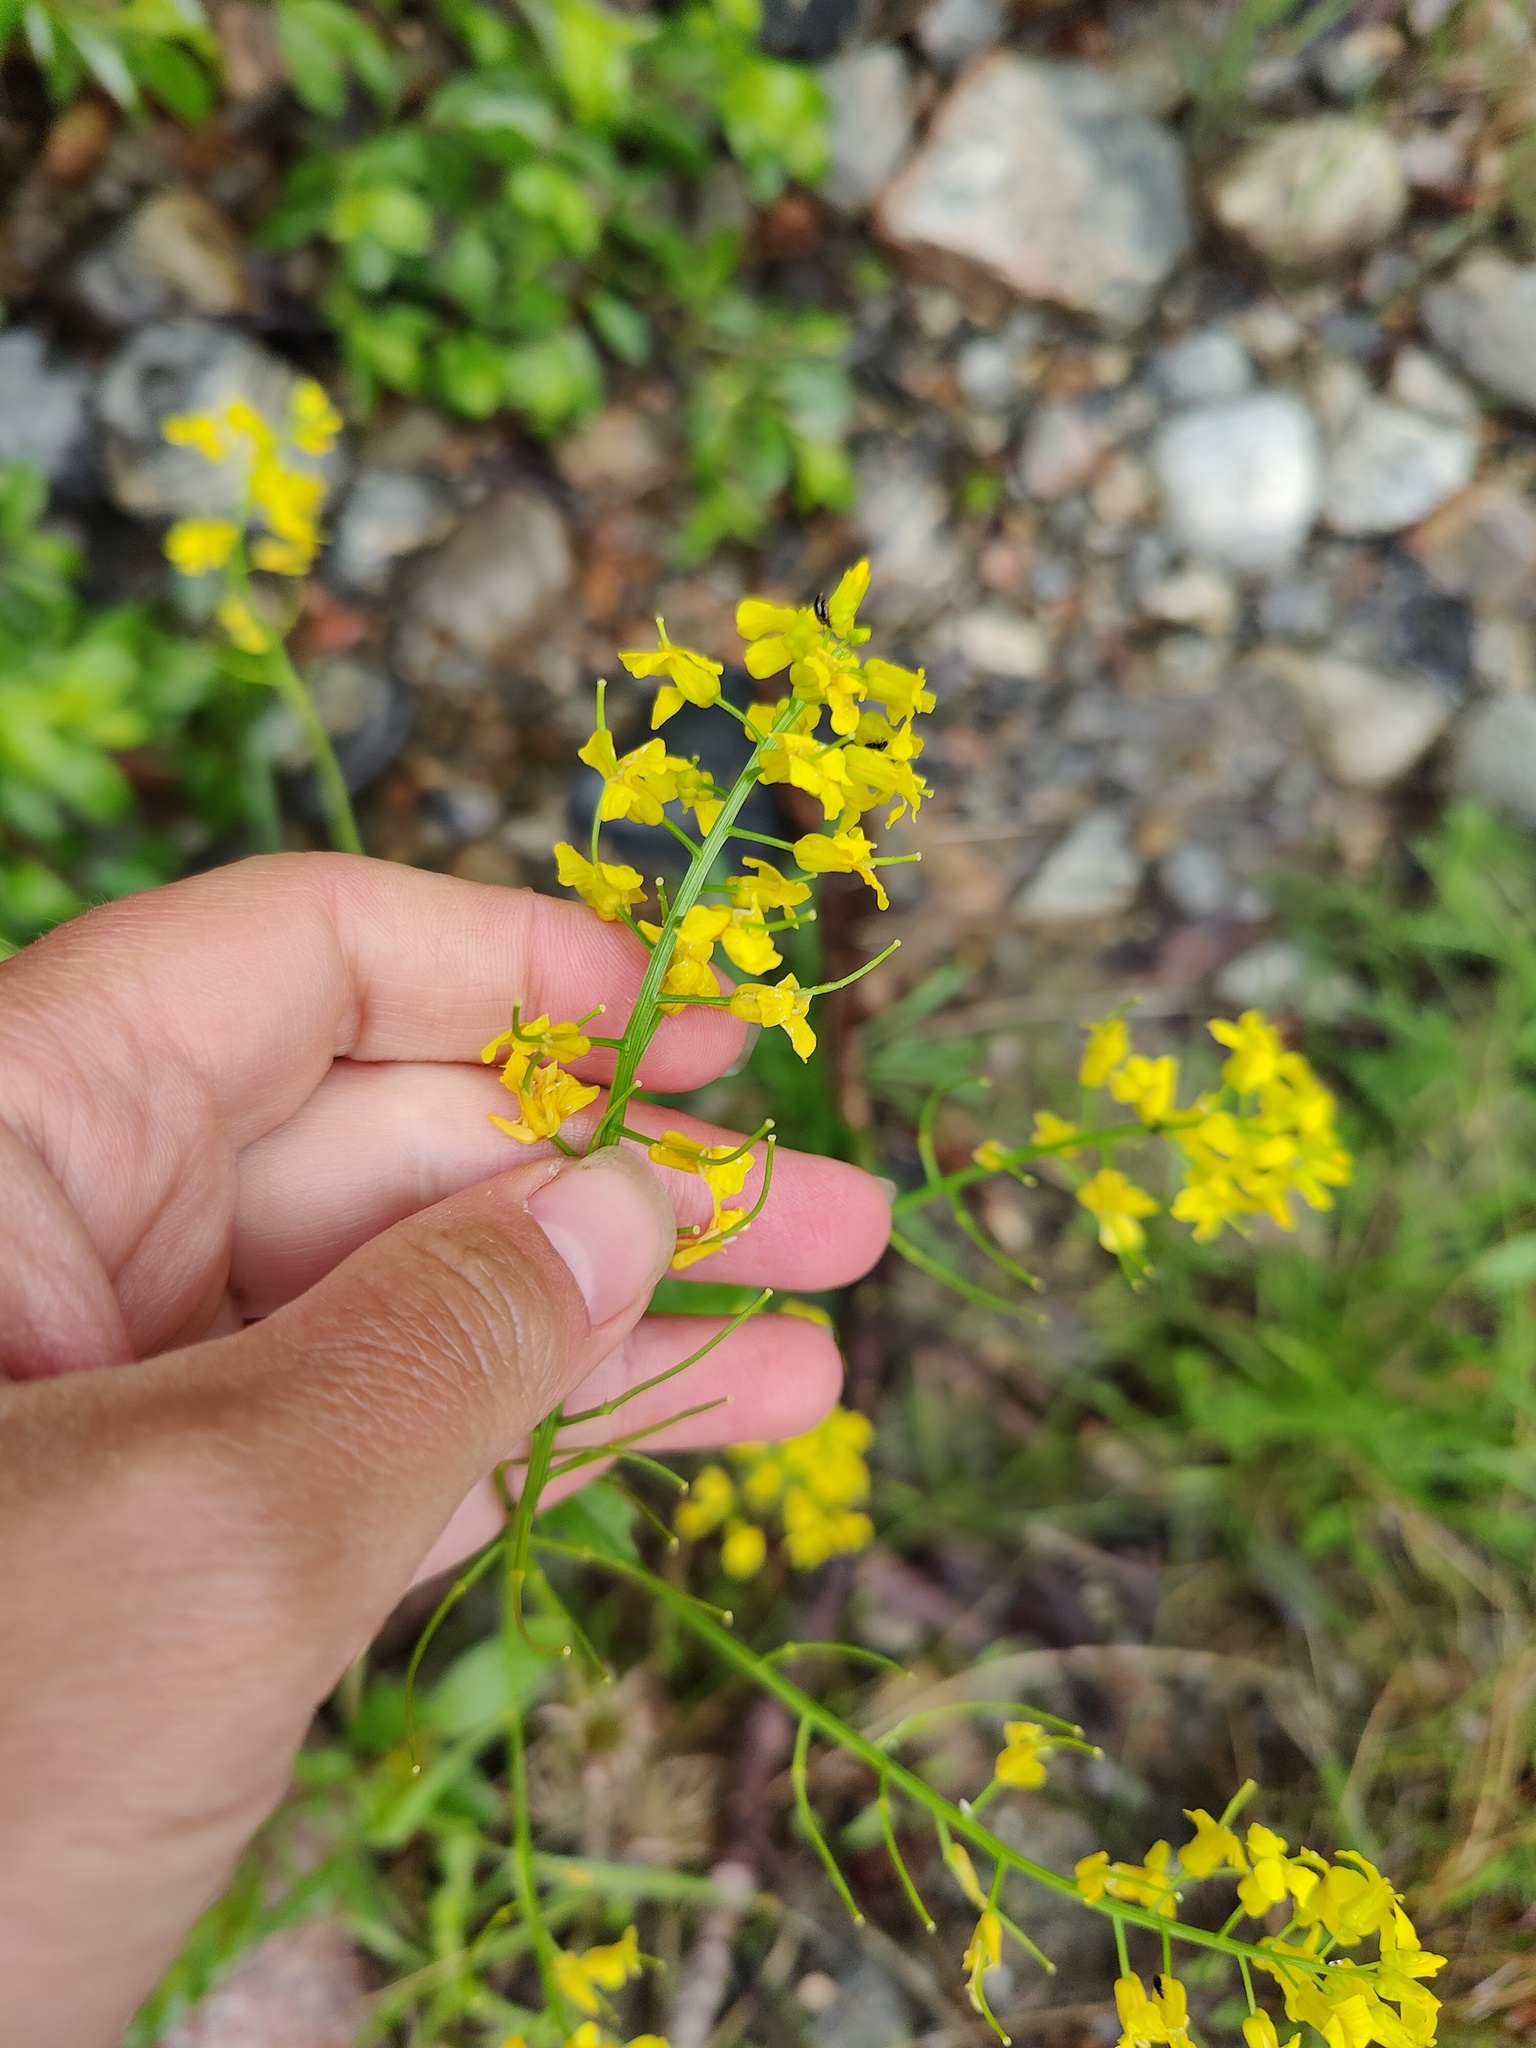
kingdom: Plantae
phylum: Tracheophyta
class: Magnoliopsida
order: Brassicales
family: Brassicaceae
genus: Barbarea
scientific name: Barbarea vulgaris
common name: Cressy-greens
